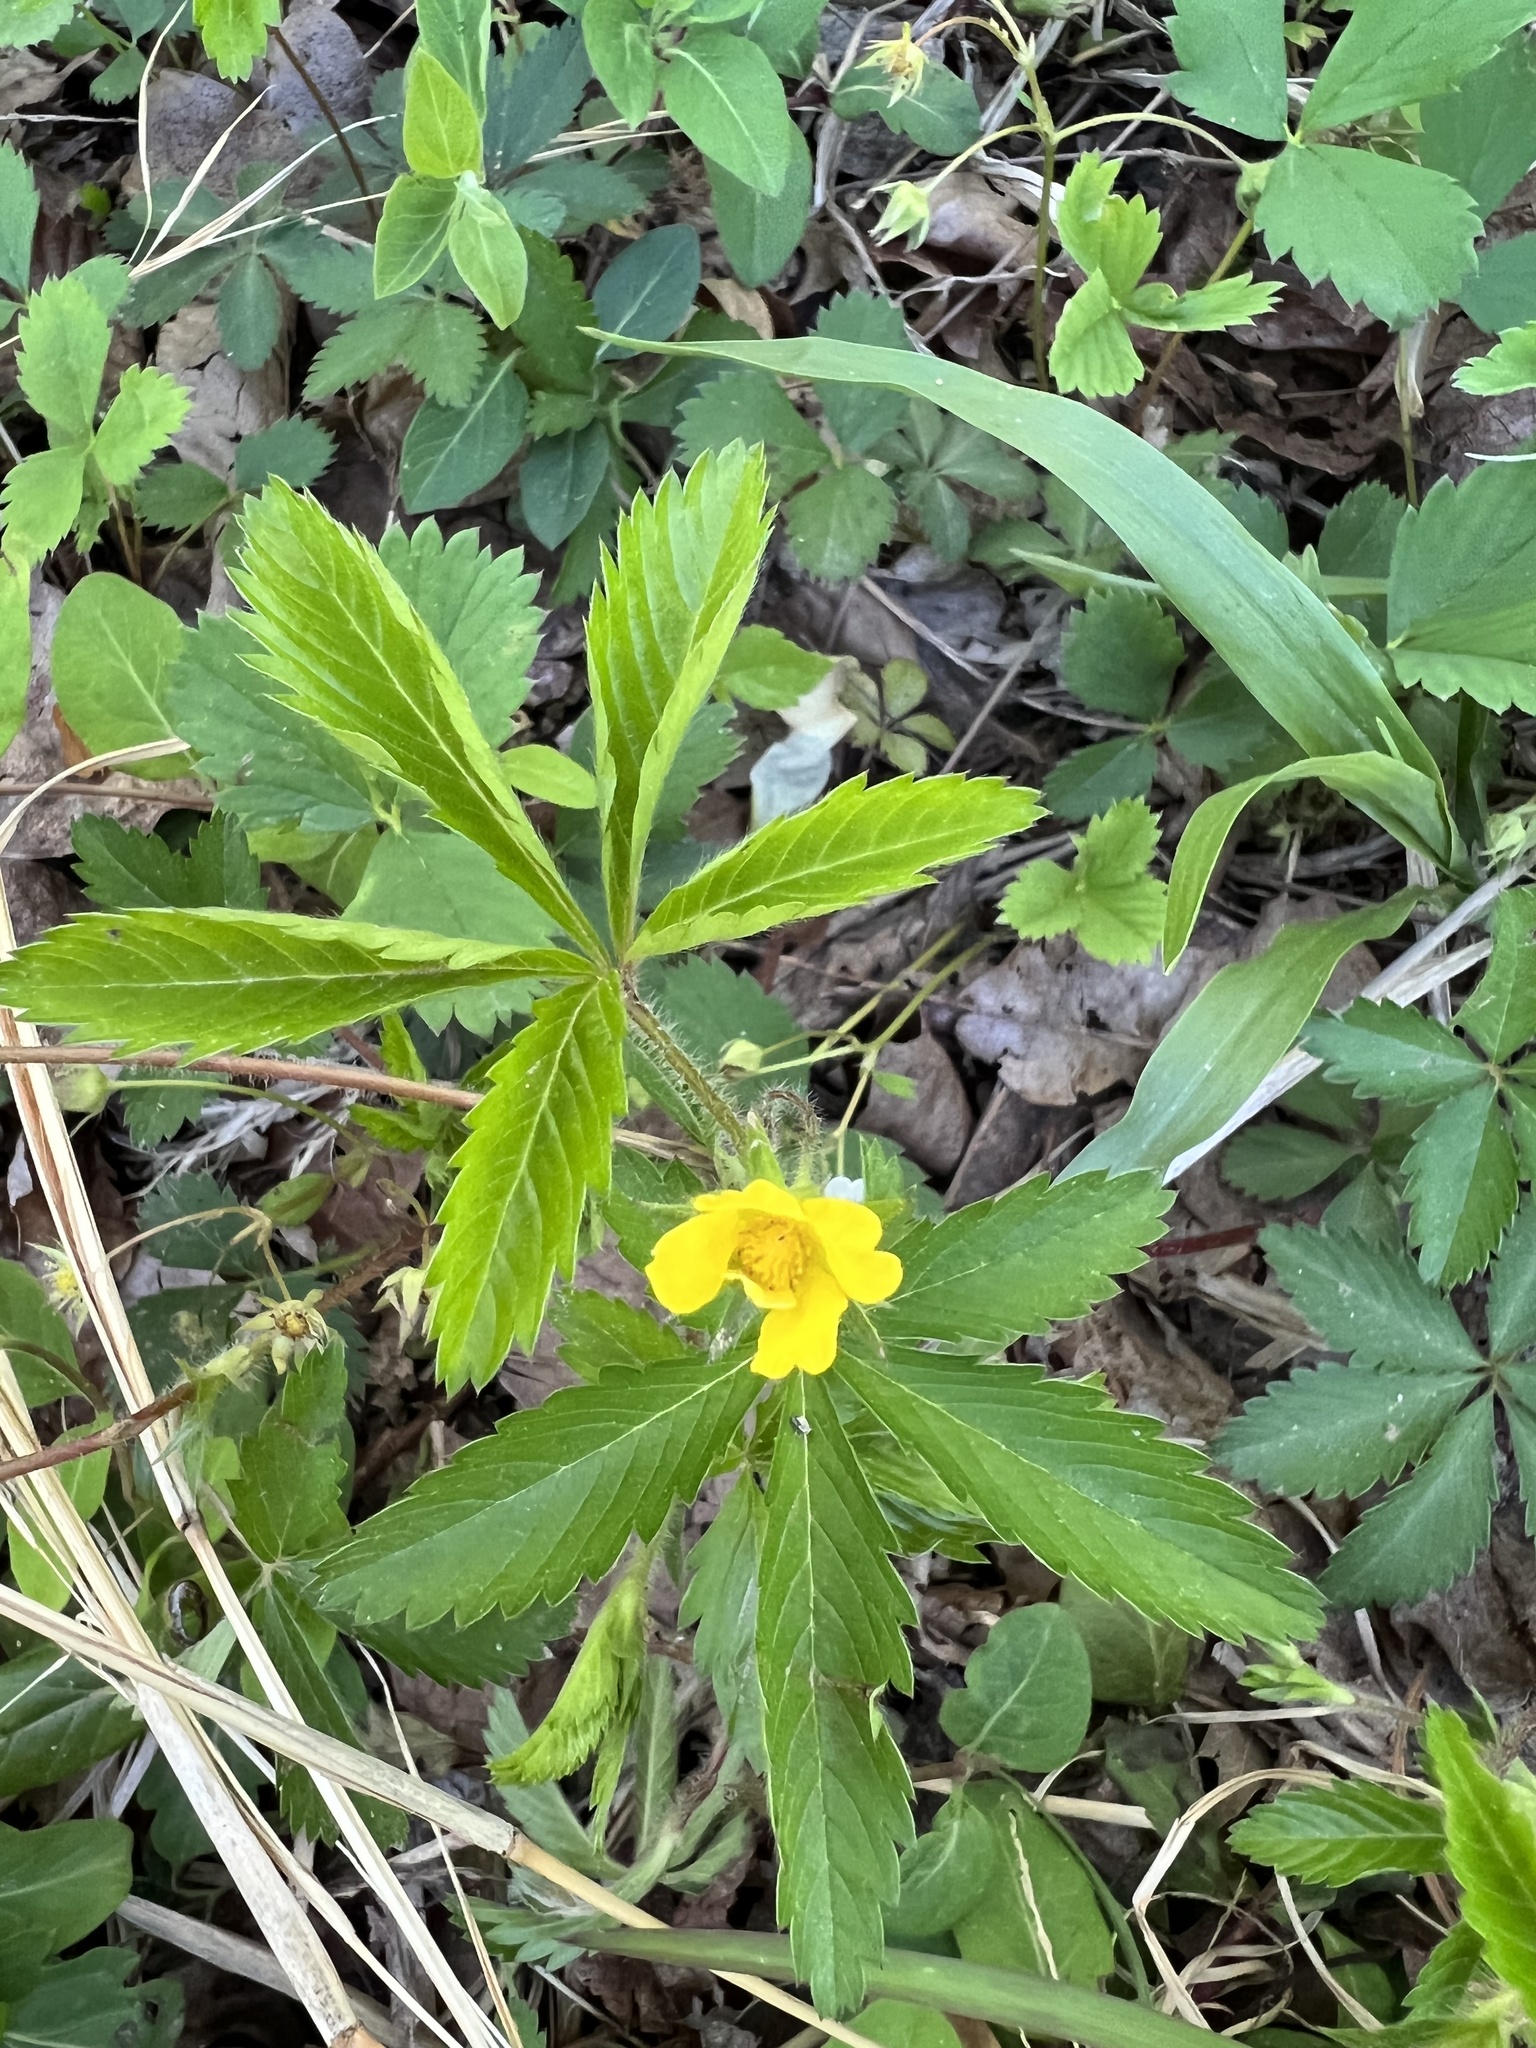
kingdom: Plantae
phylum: Tracheophyta
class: Magnoliopsida
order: Rosales
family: Rosaceae
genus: Potentilla
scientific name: Potentilla simplex
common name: Old field cinquefoil
